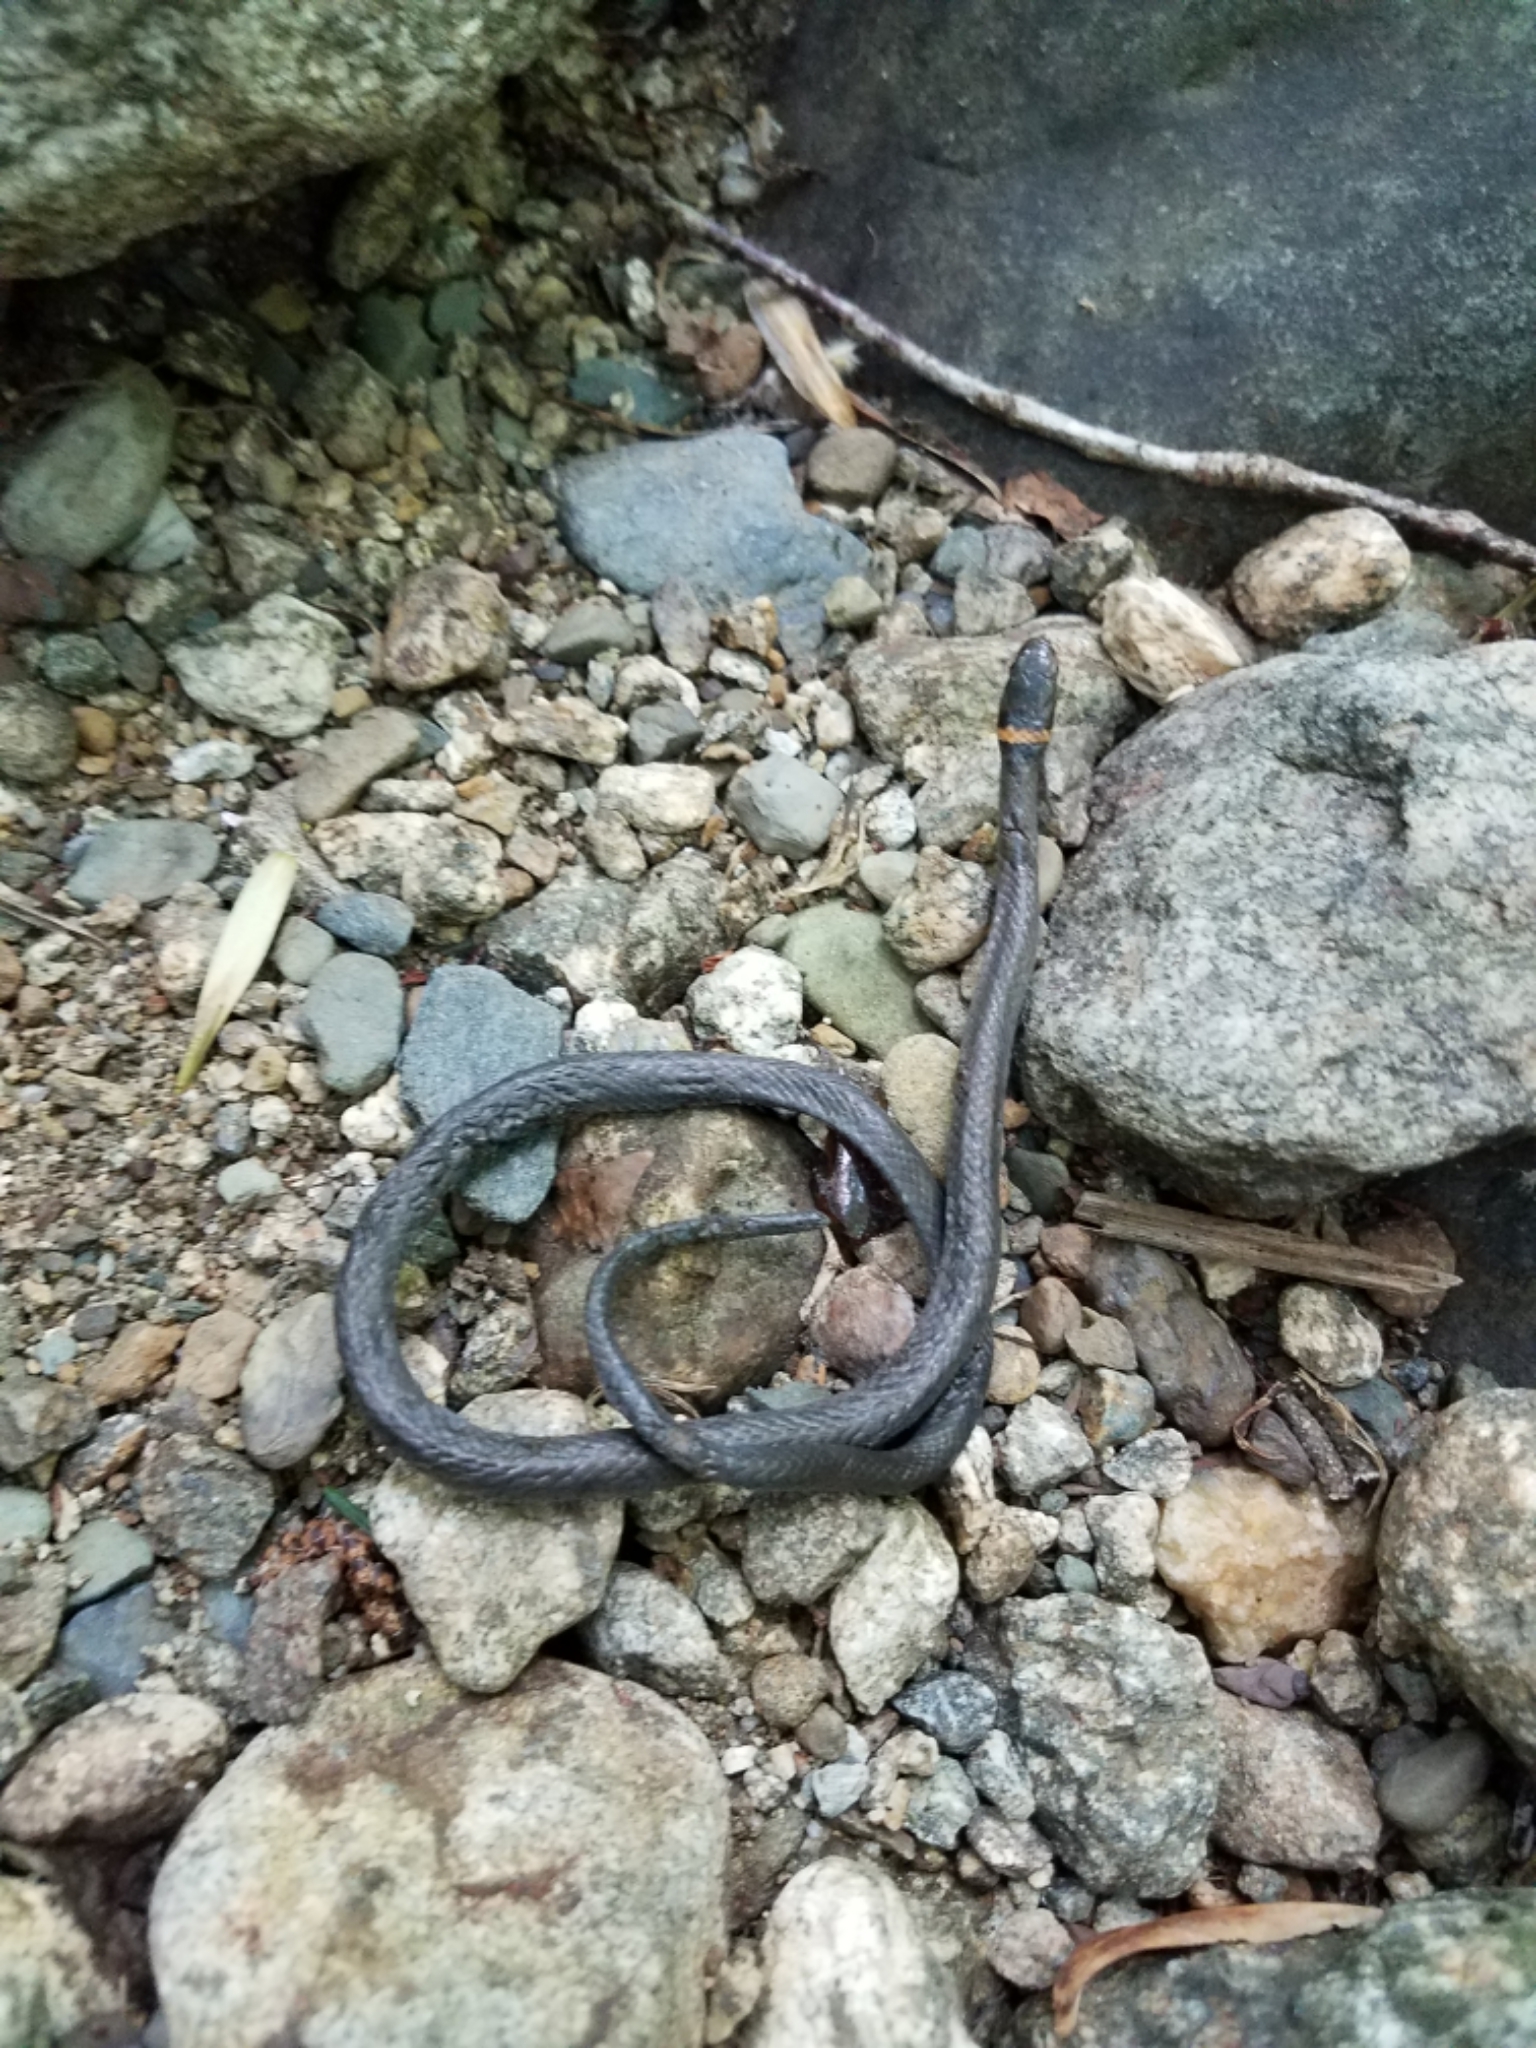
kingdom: Animalia
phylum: Chordata
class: Squamata
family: Colubridae
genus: Diadophis
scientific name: Diadophis punctatus
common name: Ringneck snake
